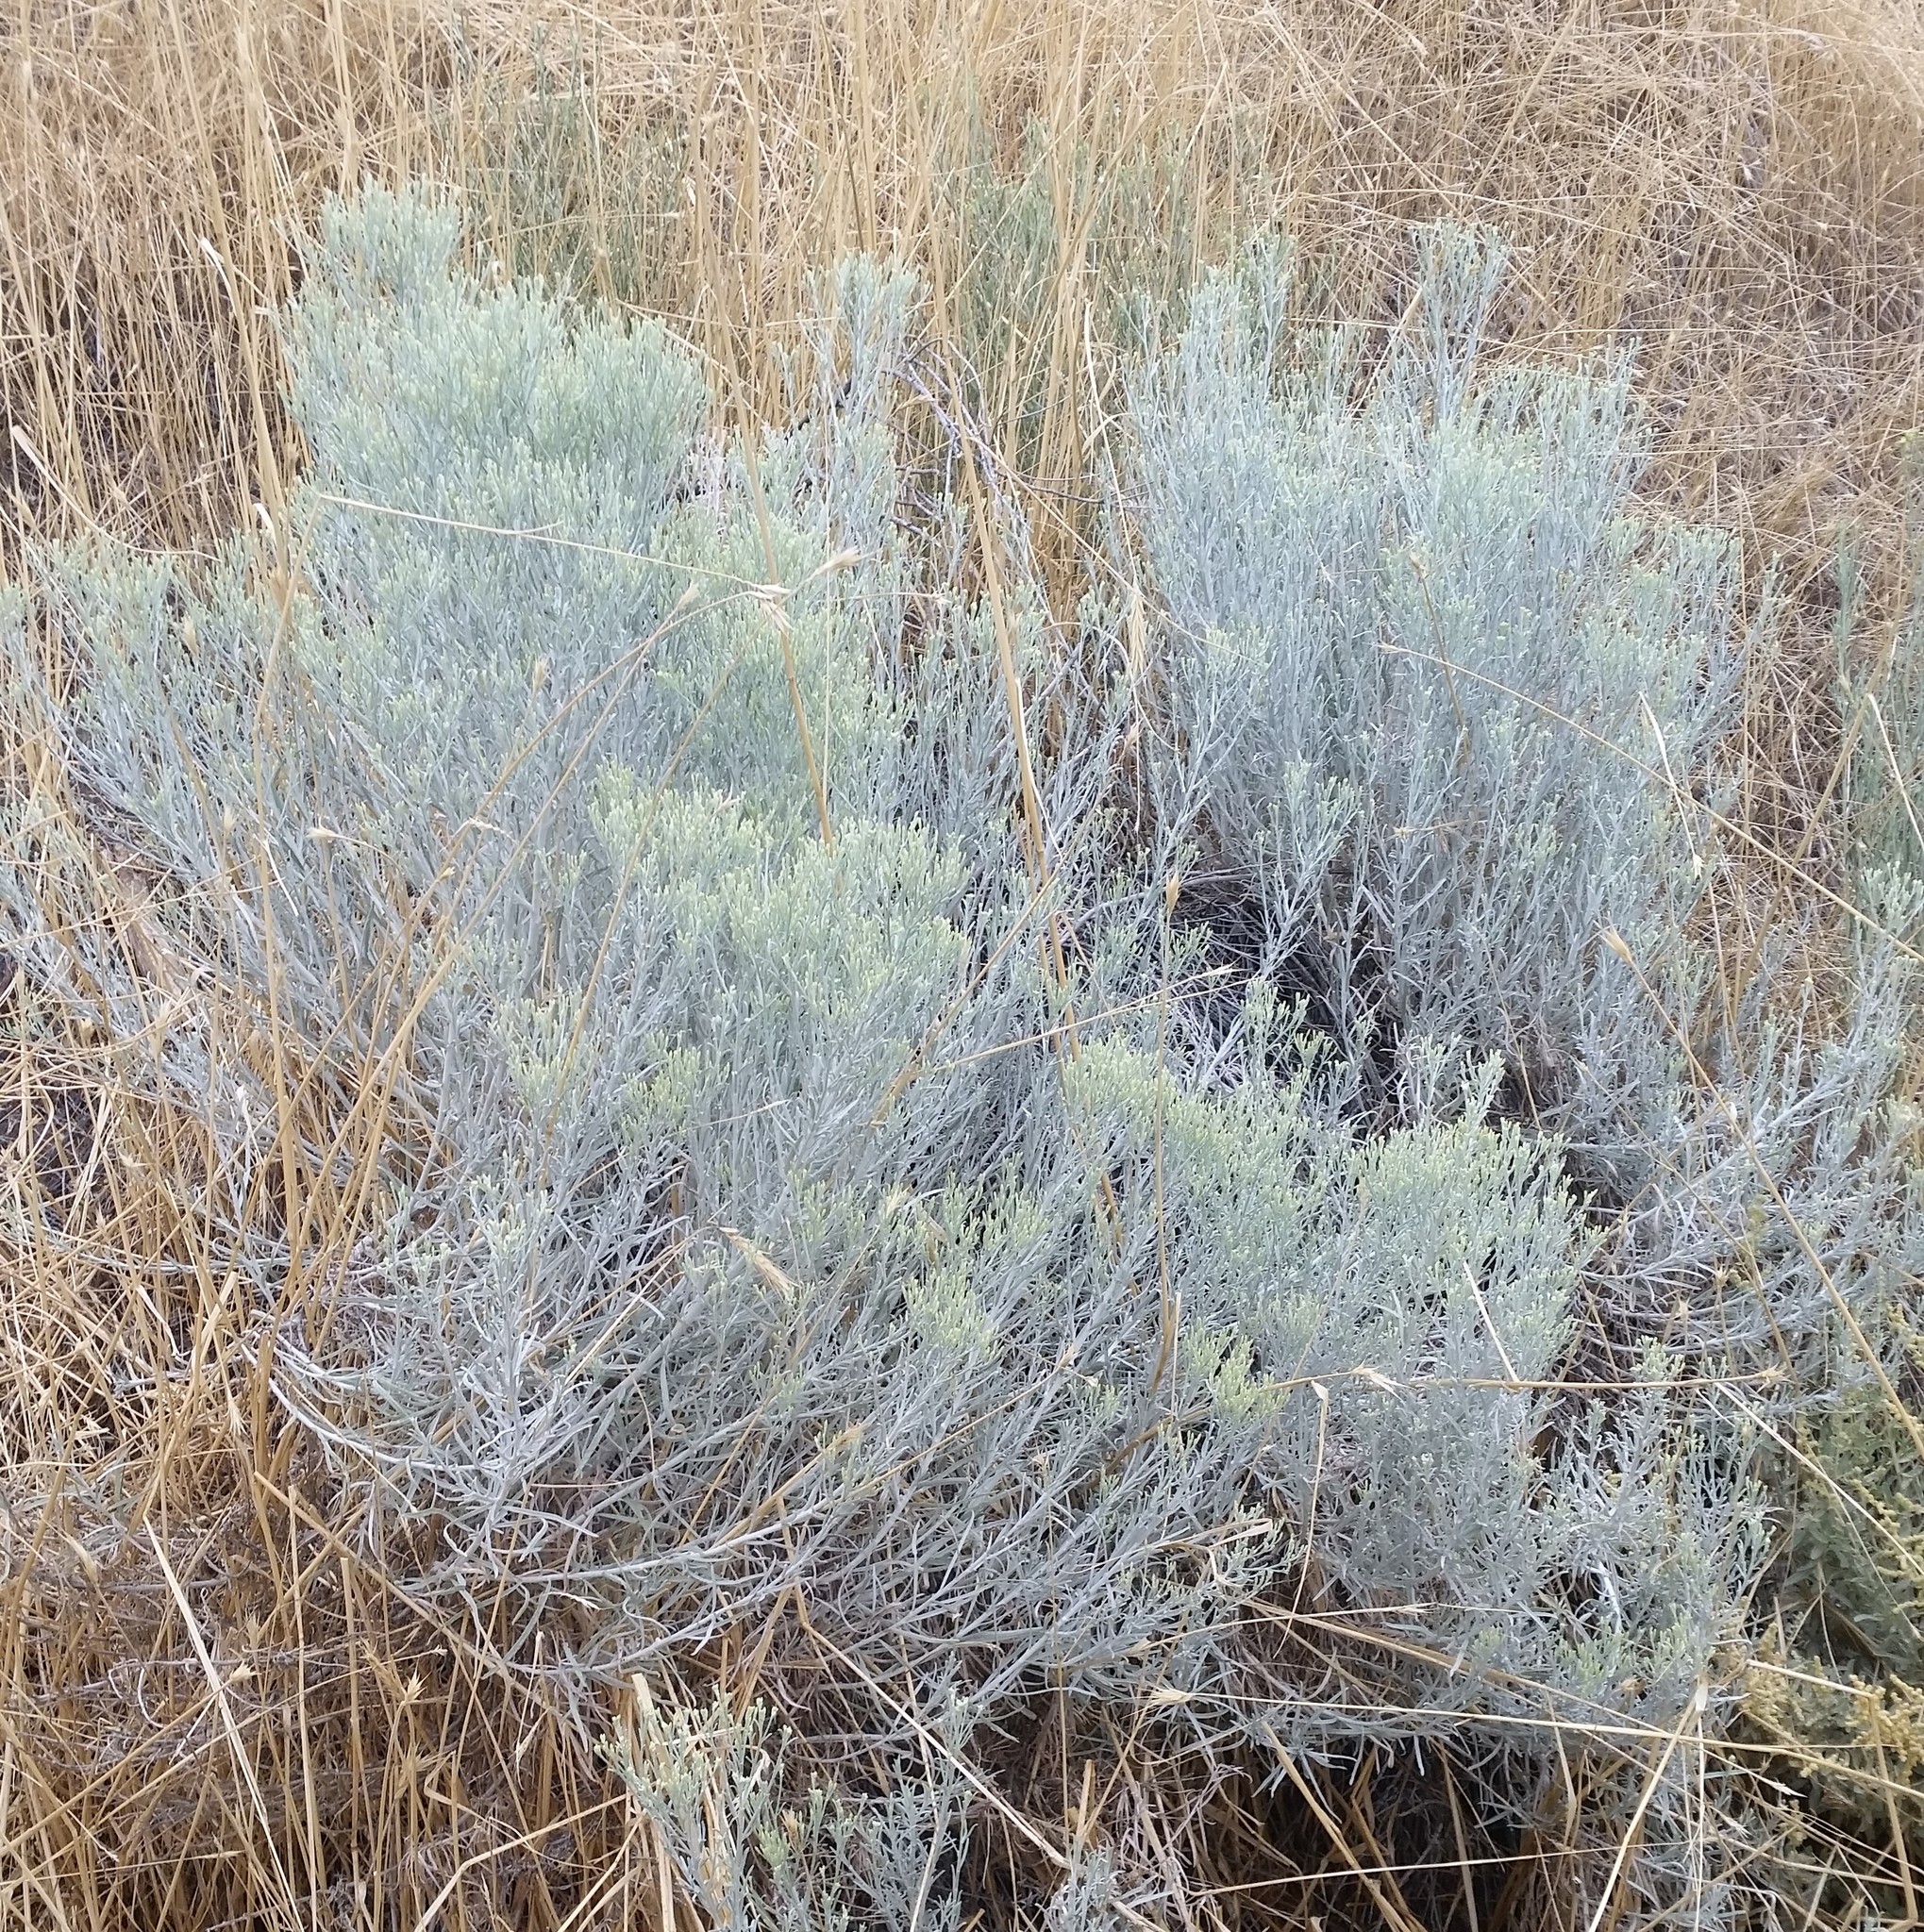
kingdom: Plantae
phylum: Tracheophyta
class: Magnoliopsida
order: Asterales
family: Asteraceae
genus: Ericameria
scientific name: Ericameria nauseosa
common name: Rubber rabbitbrush
